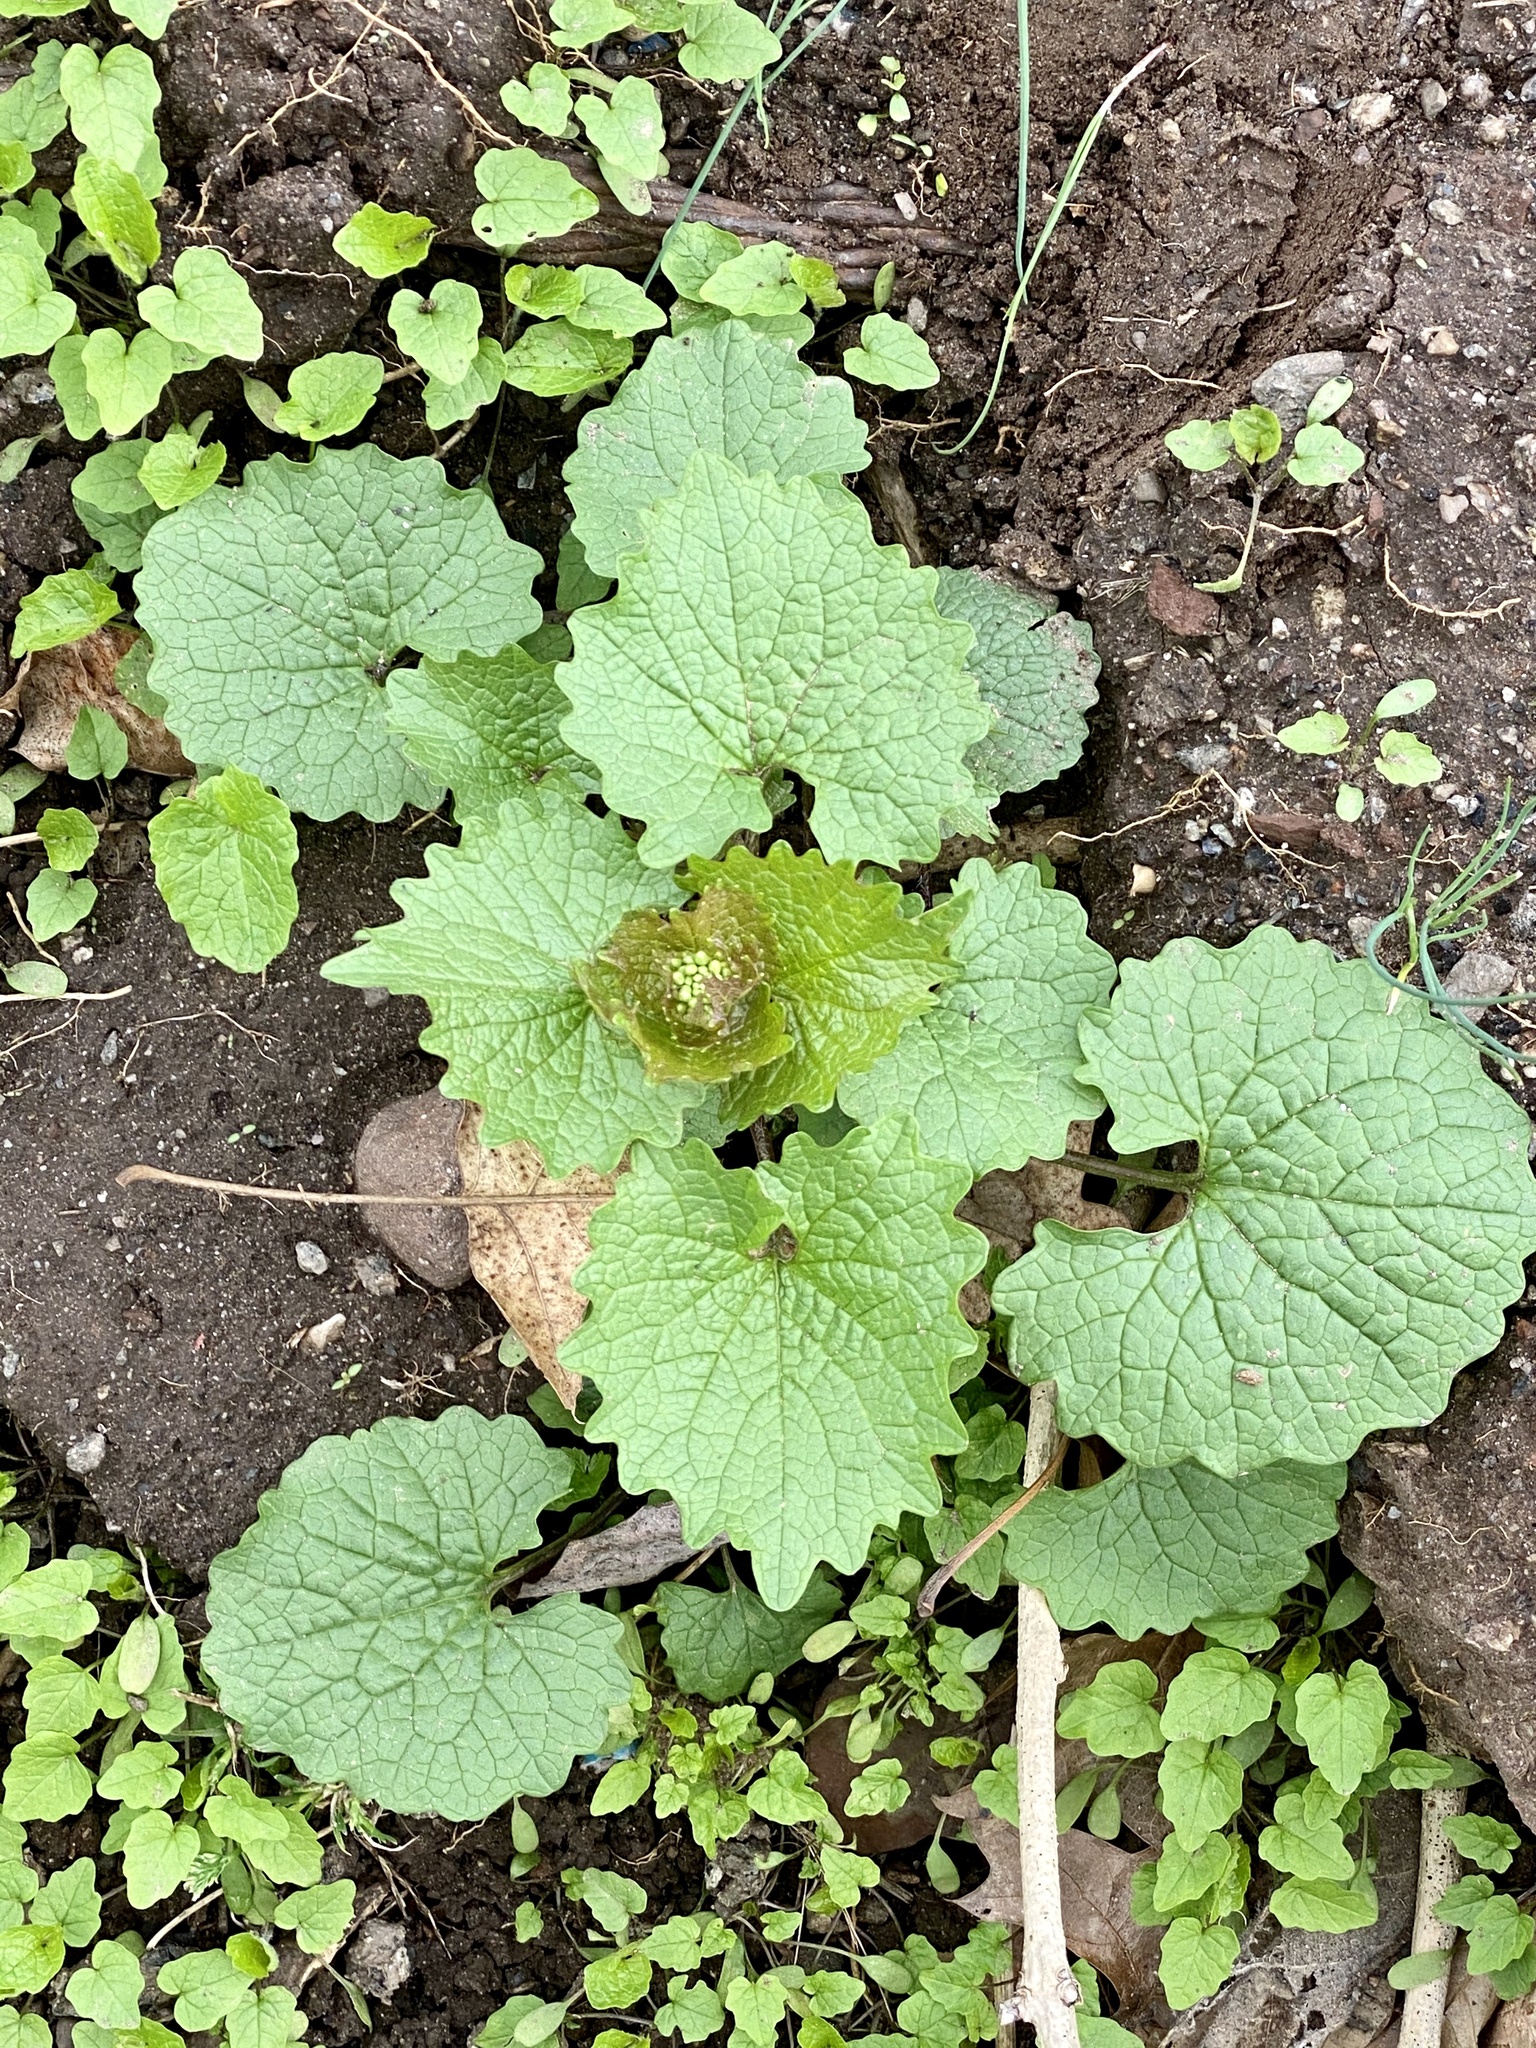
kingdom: Plantae
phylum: Tracheophyta
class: Magnoliopsida
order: Brassicales
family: Brassicaceae
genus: Alliaria
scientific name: Alliaria petiolata
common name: Garlic mustard
